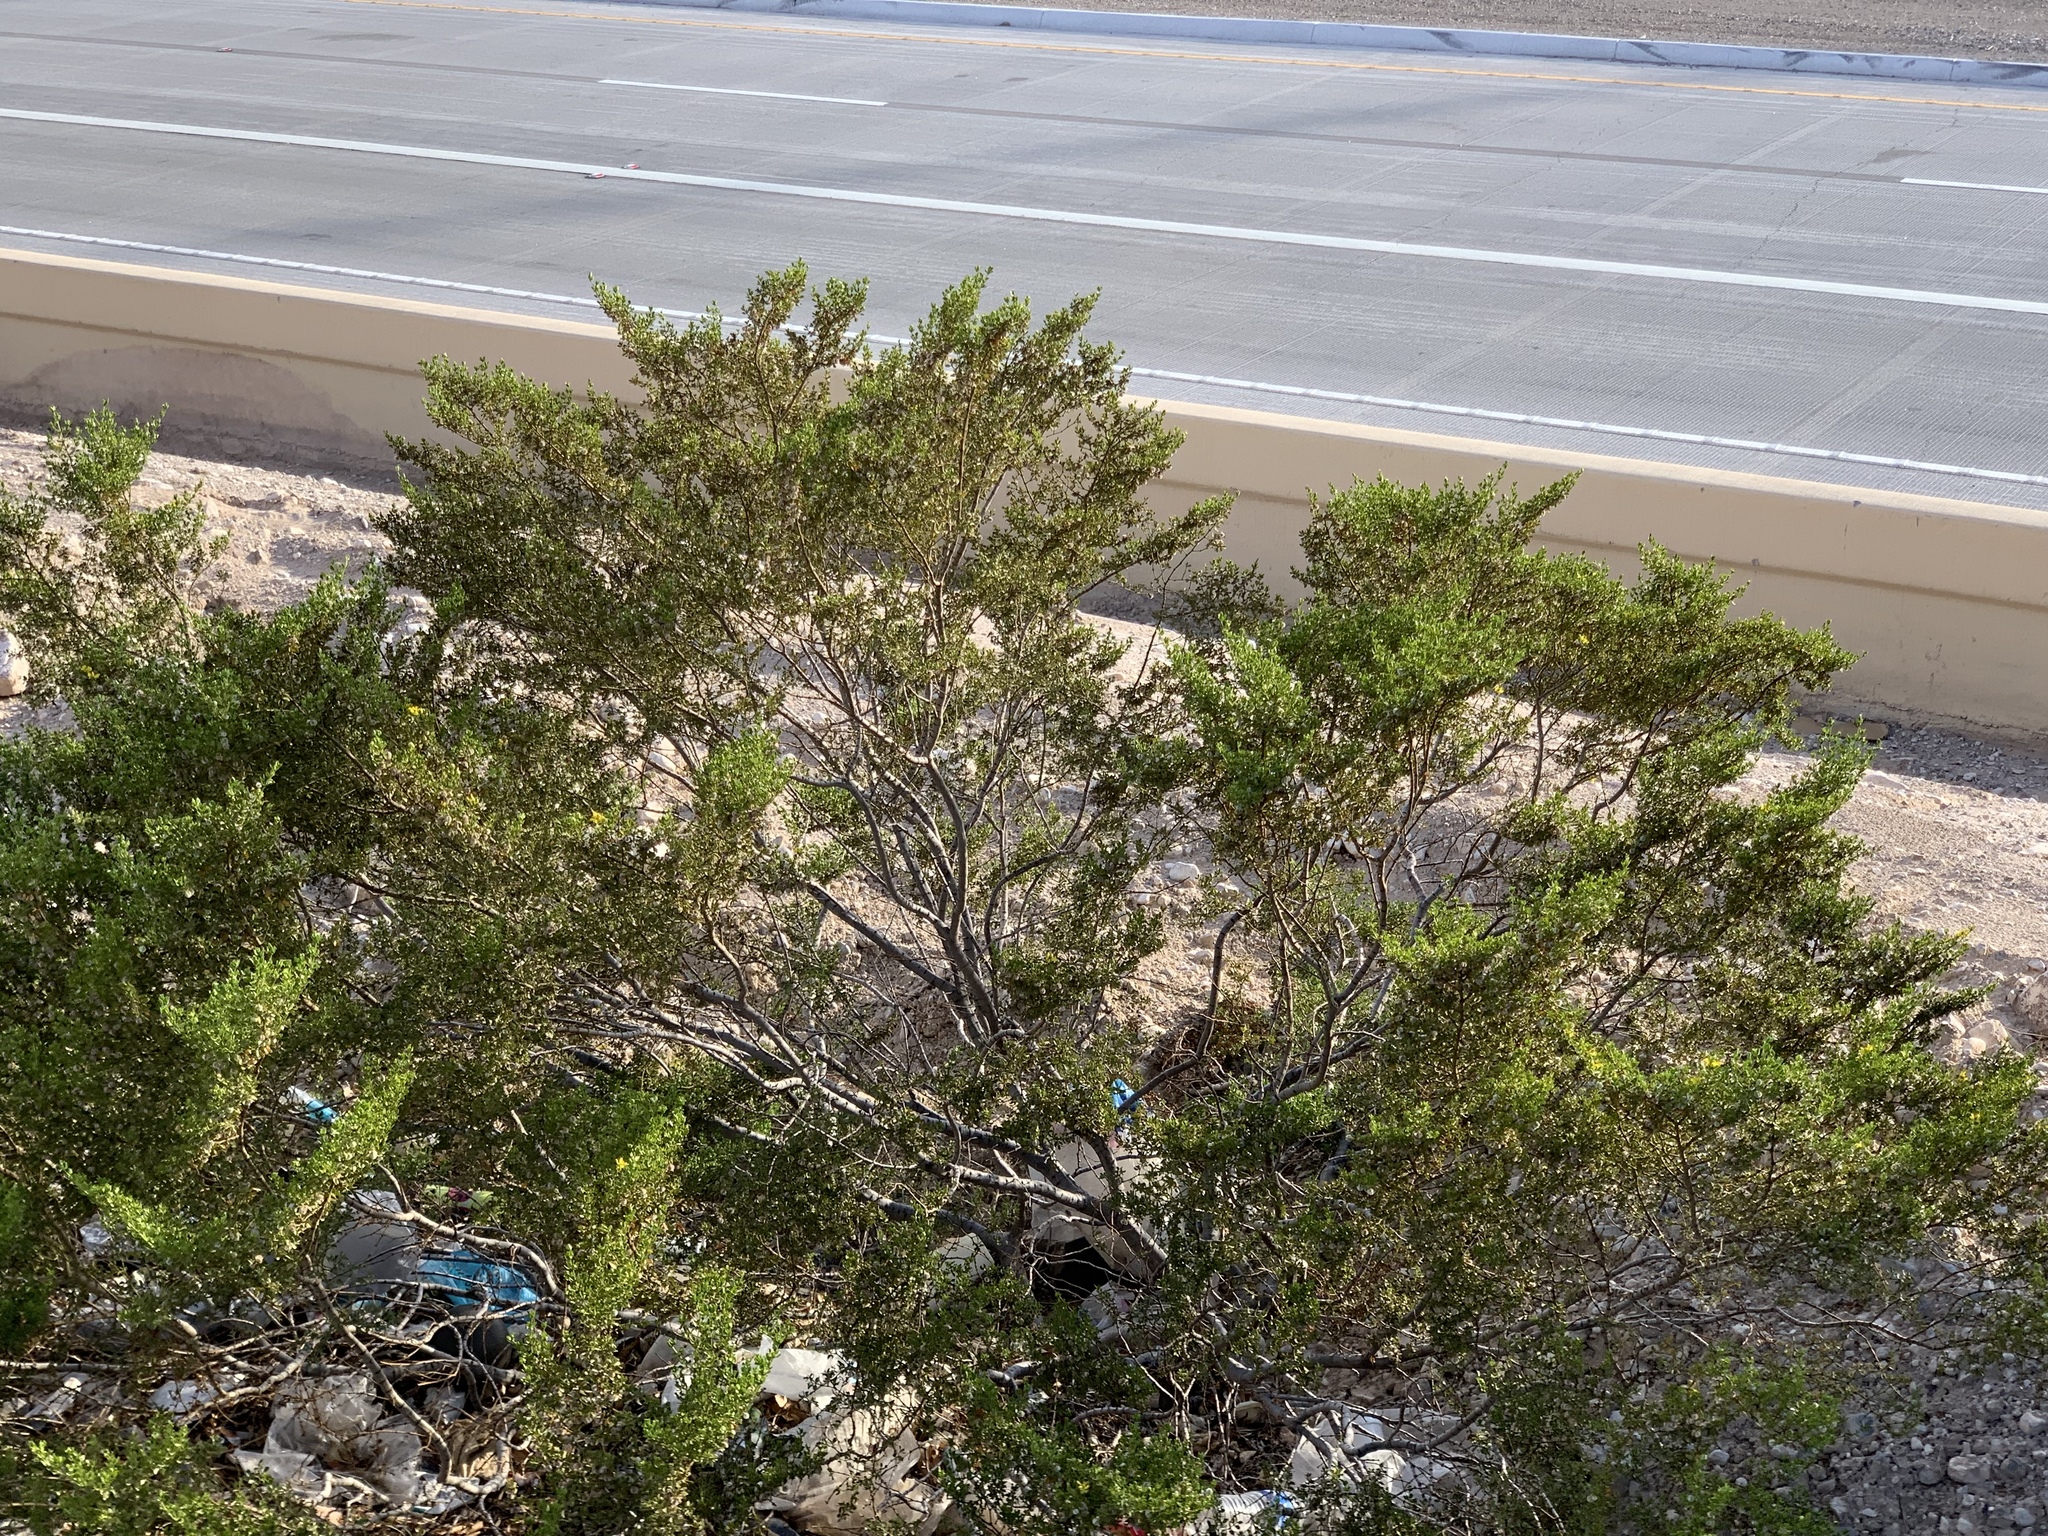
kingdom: Plantae
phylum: Tracheophyta
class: Magnoliopsida
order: Zygophyllales
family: Zygophyllaceae
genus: Larrea
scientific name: Larrea tridentata
